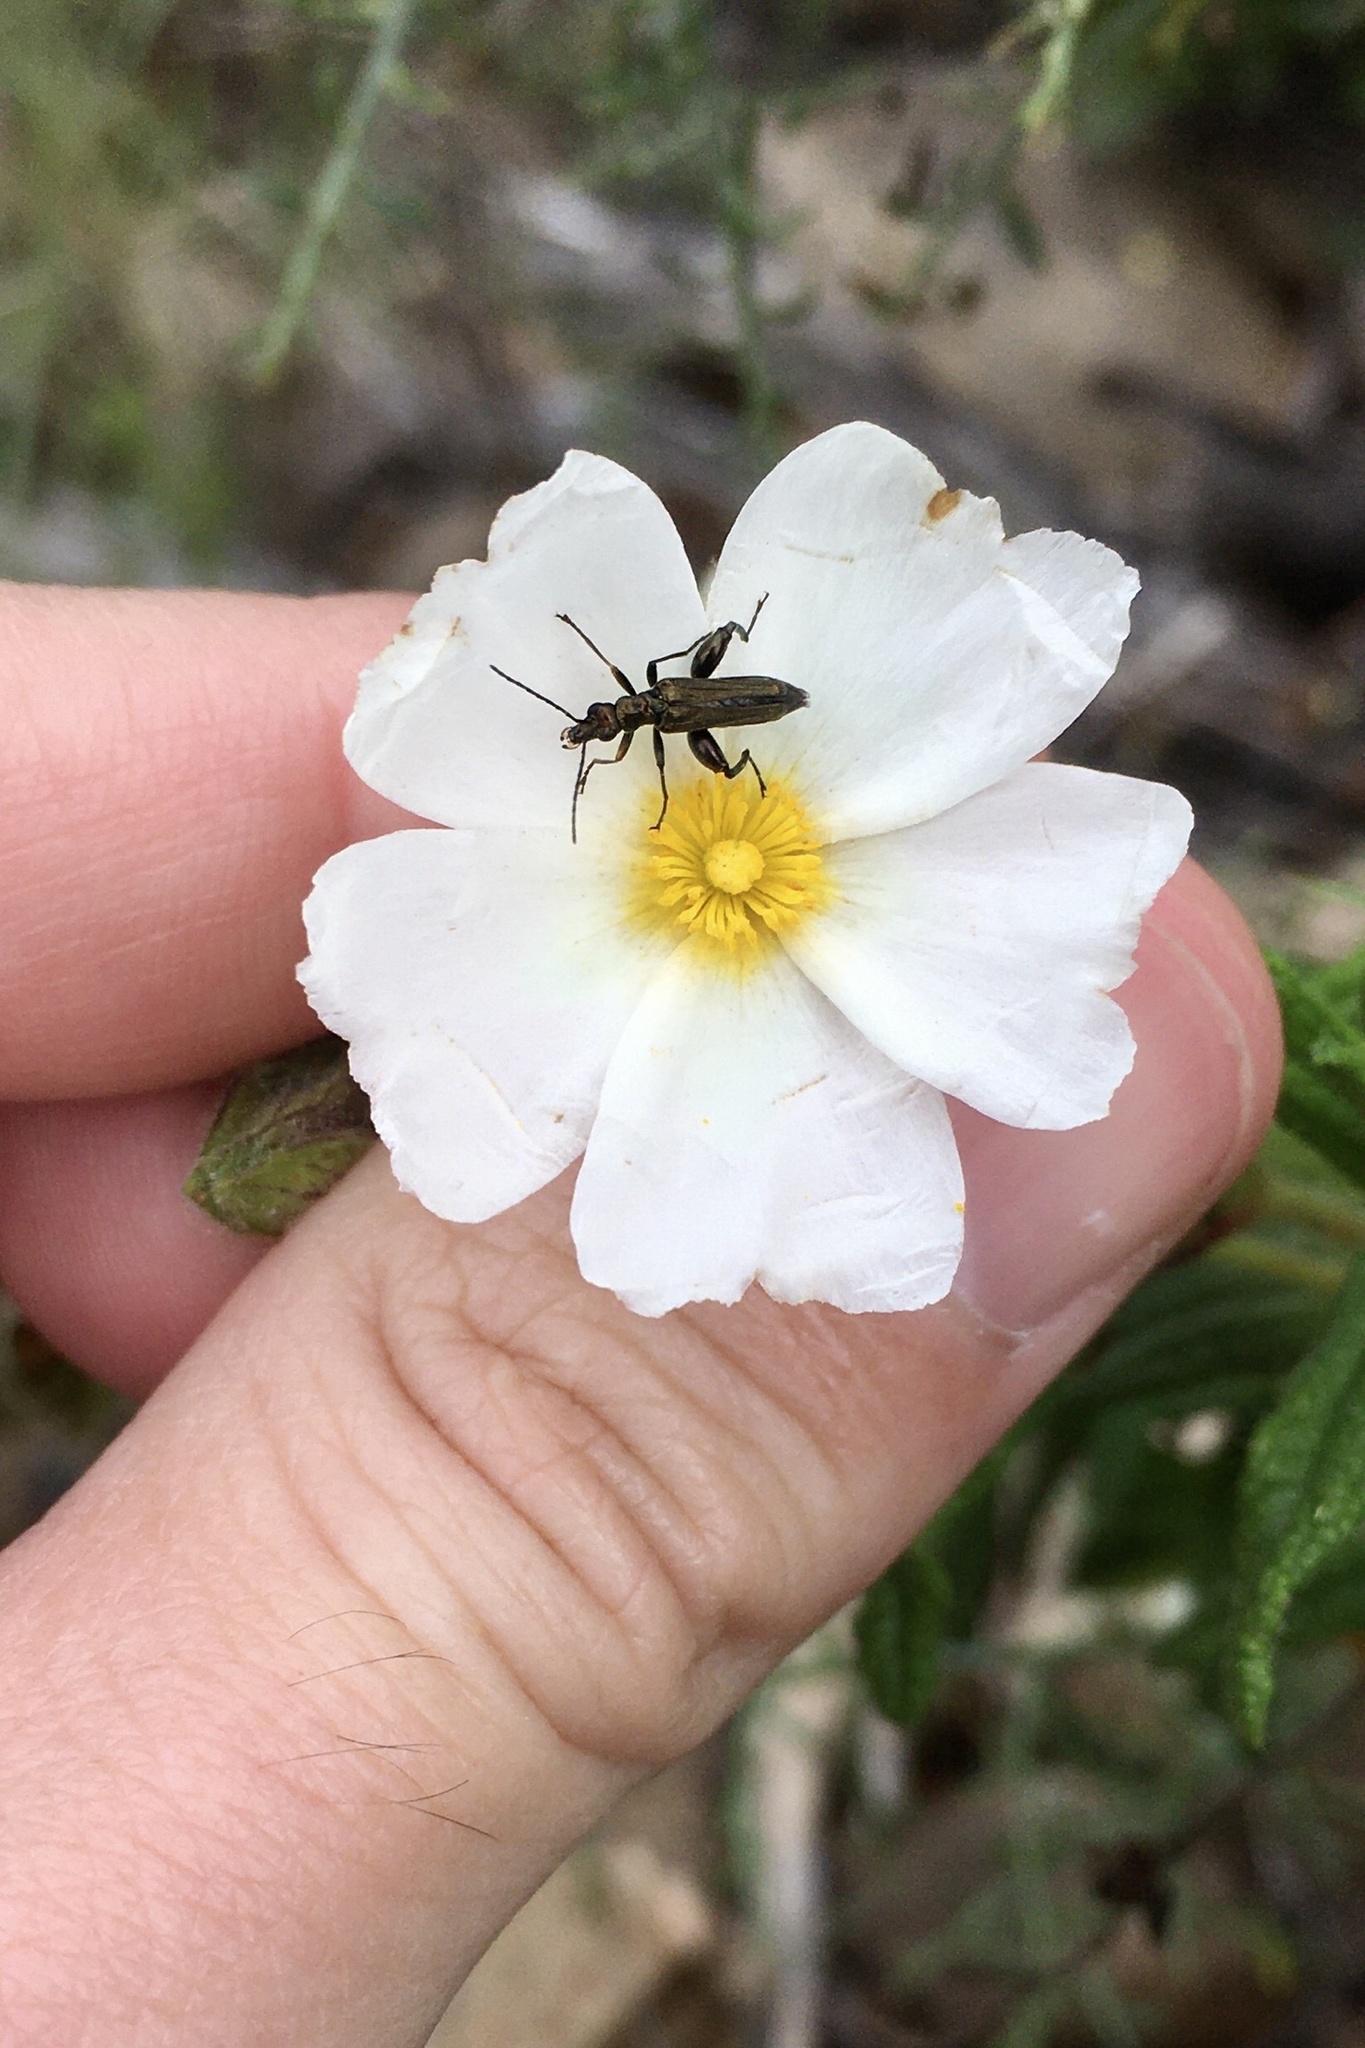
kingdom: Animalia
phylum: Arthropoda
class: Insecta
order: Coleoptera
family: Oedemeridae
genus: Oedemera
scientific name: Oedemera flavipes
